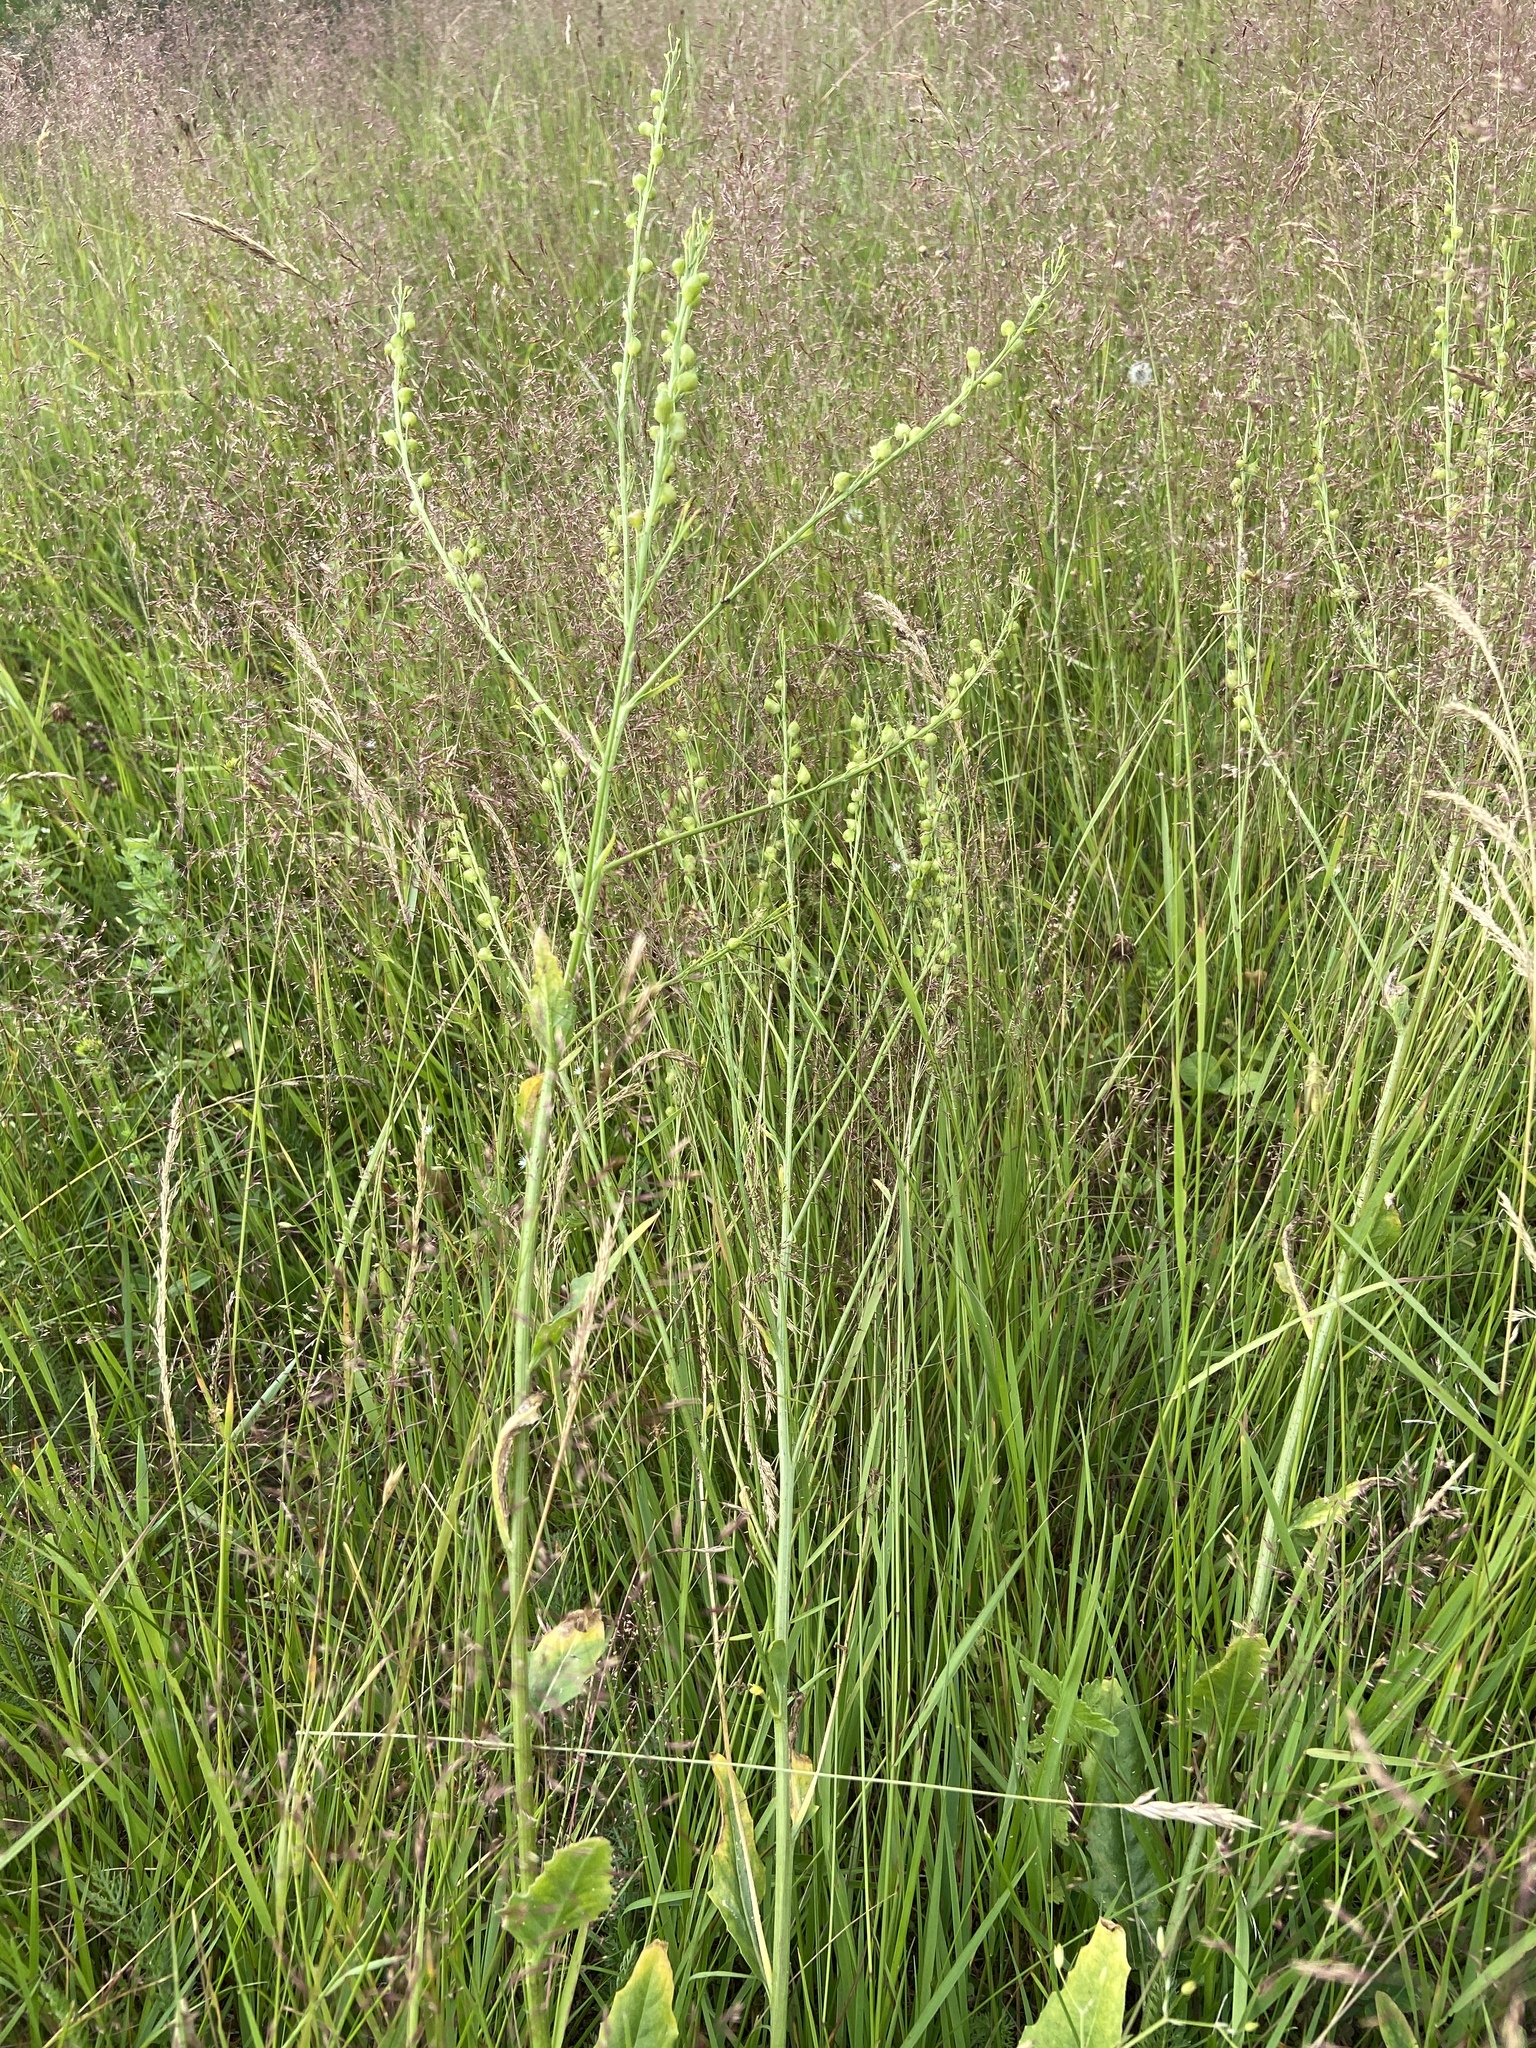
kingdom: Plantae
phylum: Tracheophyta
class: Magnoliopsida
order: Brassicales
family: Brassicaceae
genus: Bunias
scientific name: Bunias orientalis
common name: Warty-cabbage
